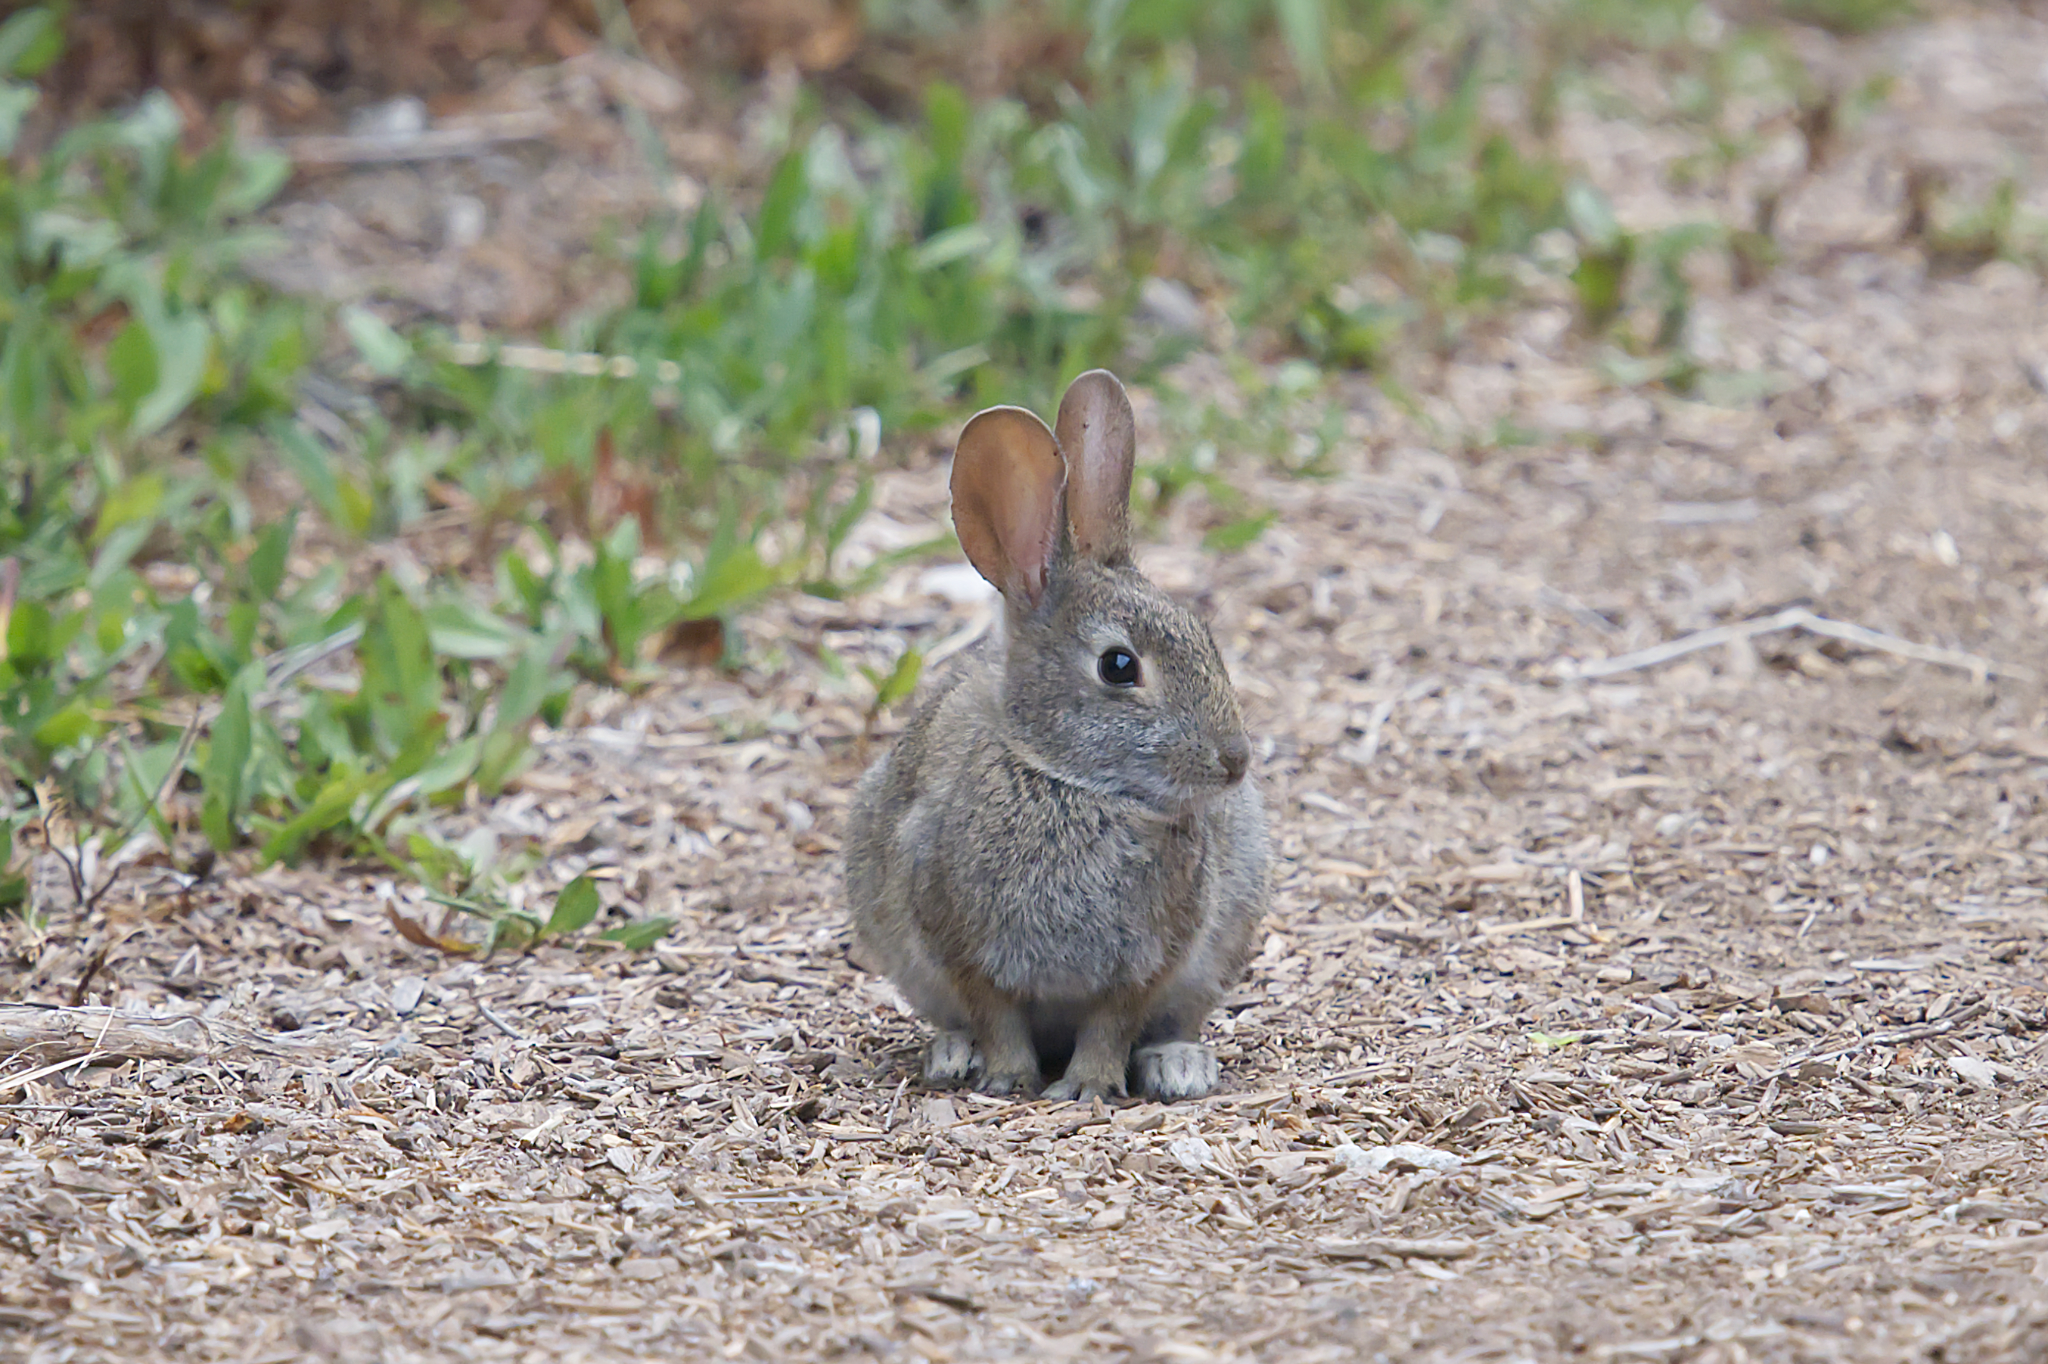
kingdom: Animalia
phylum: Chordata
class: Mammalia
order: Lagomorpha
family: Leporidae
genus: Sylvilagus
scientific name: Sylvilagus bachmani
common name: Brush rabbit
